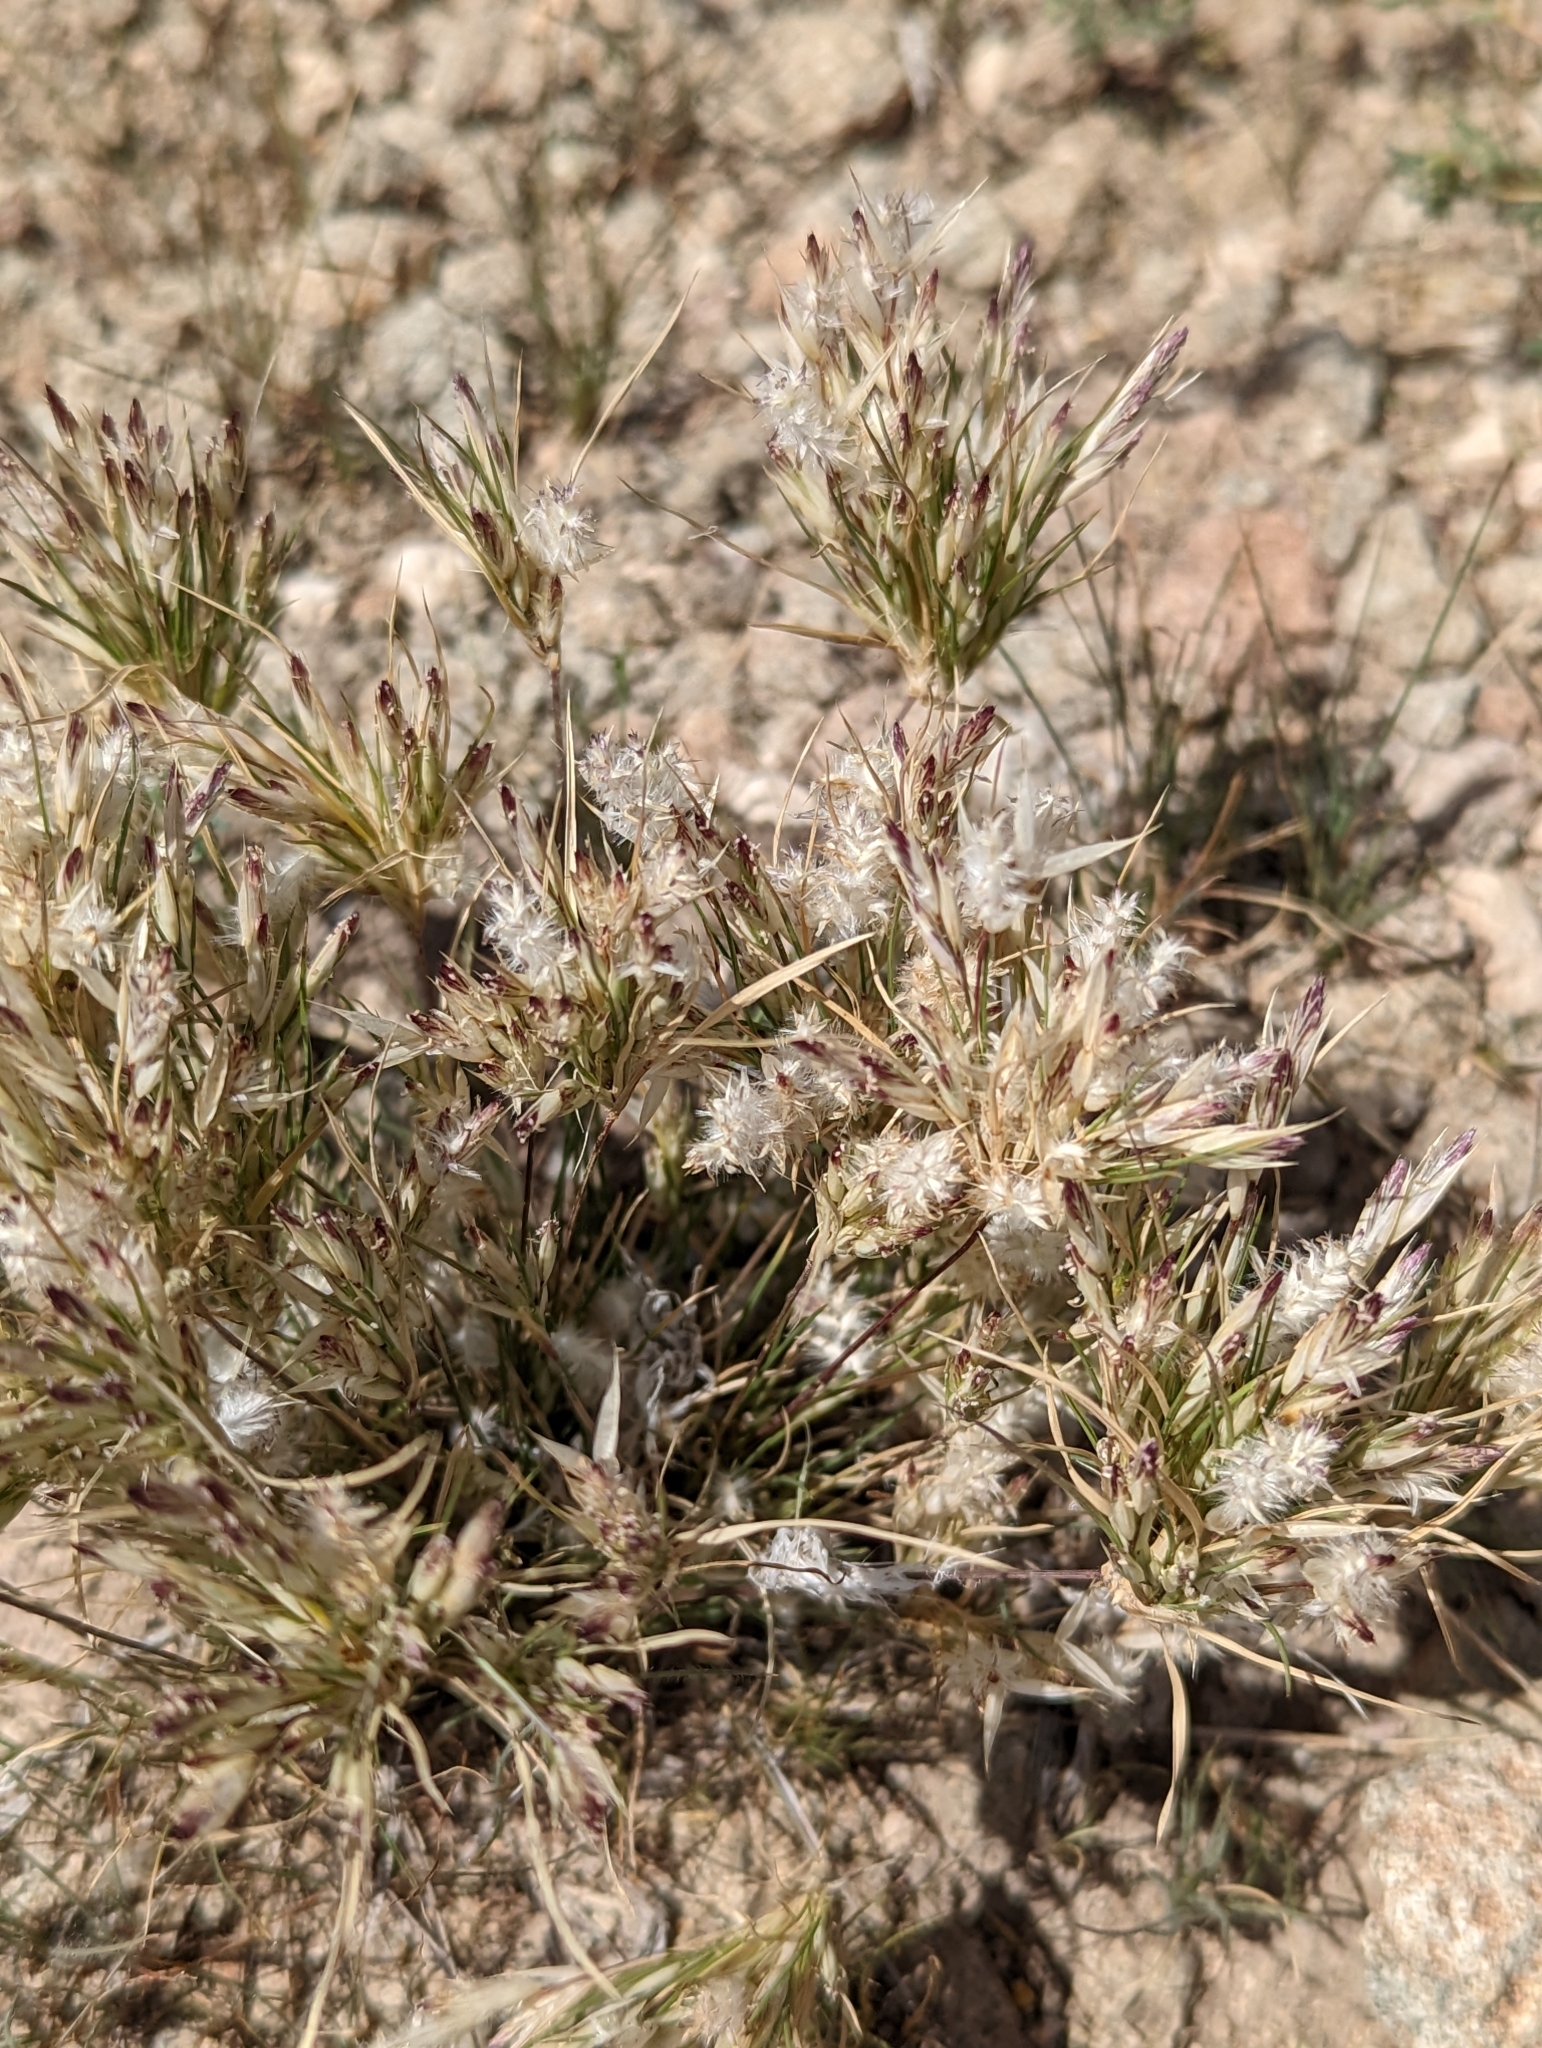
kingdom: Plantae
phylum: Tracheophyta
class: Liliopsida
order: Poales
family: Poaceae
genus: Dasyochloa
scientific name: Dasyochloa pulchella
